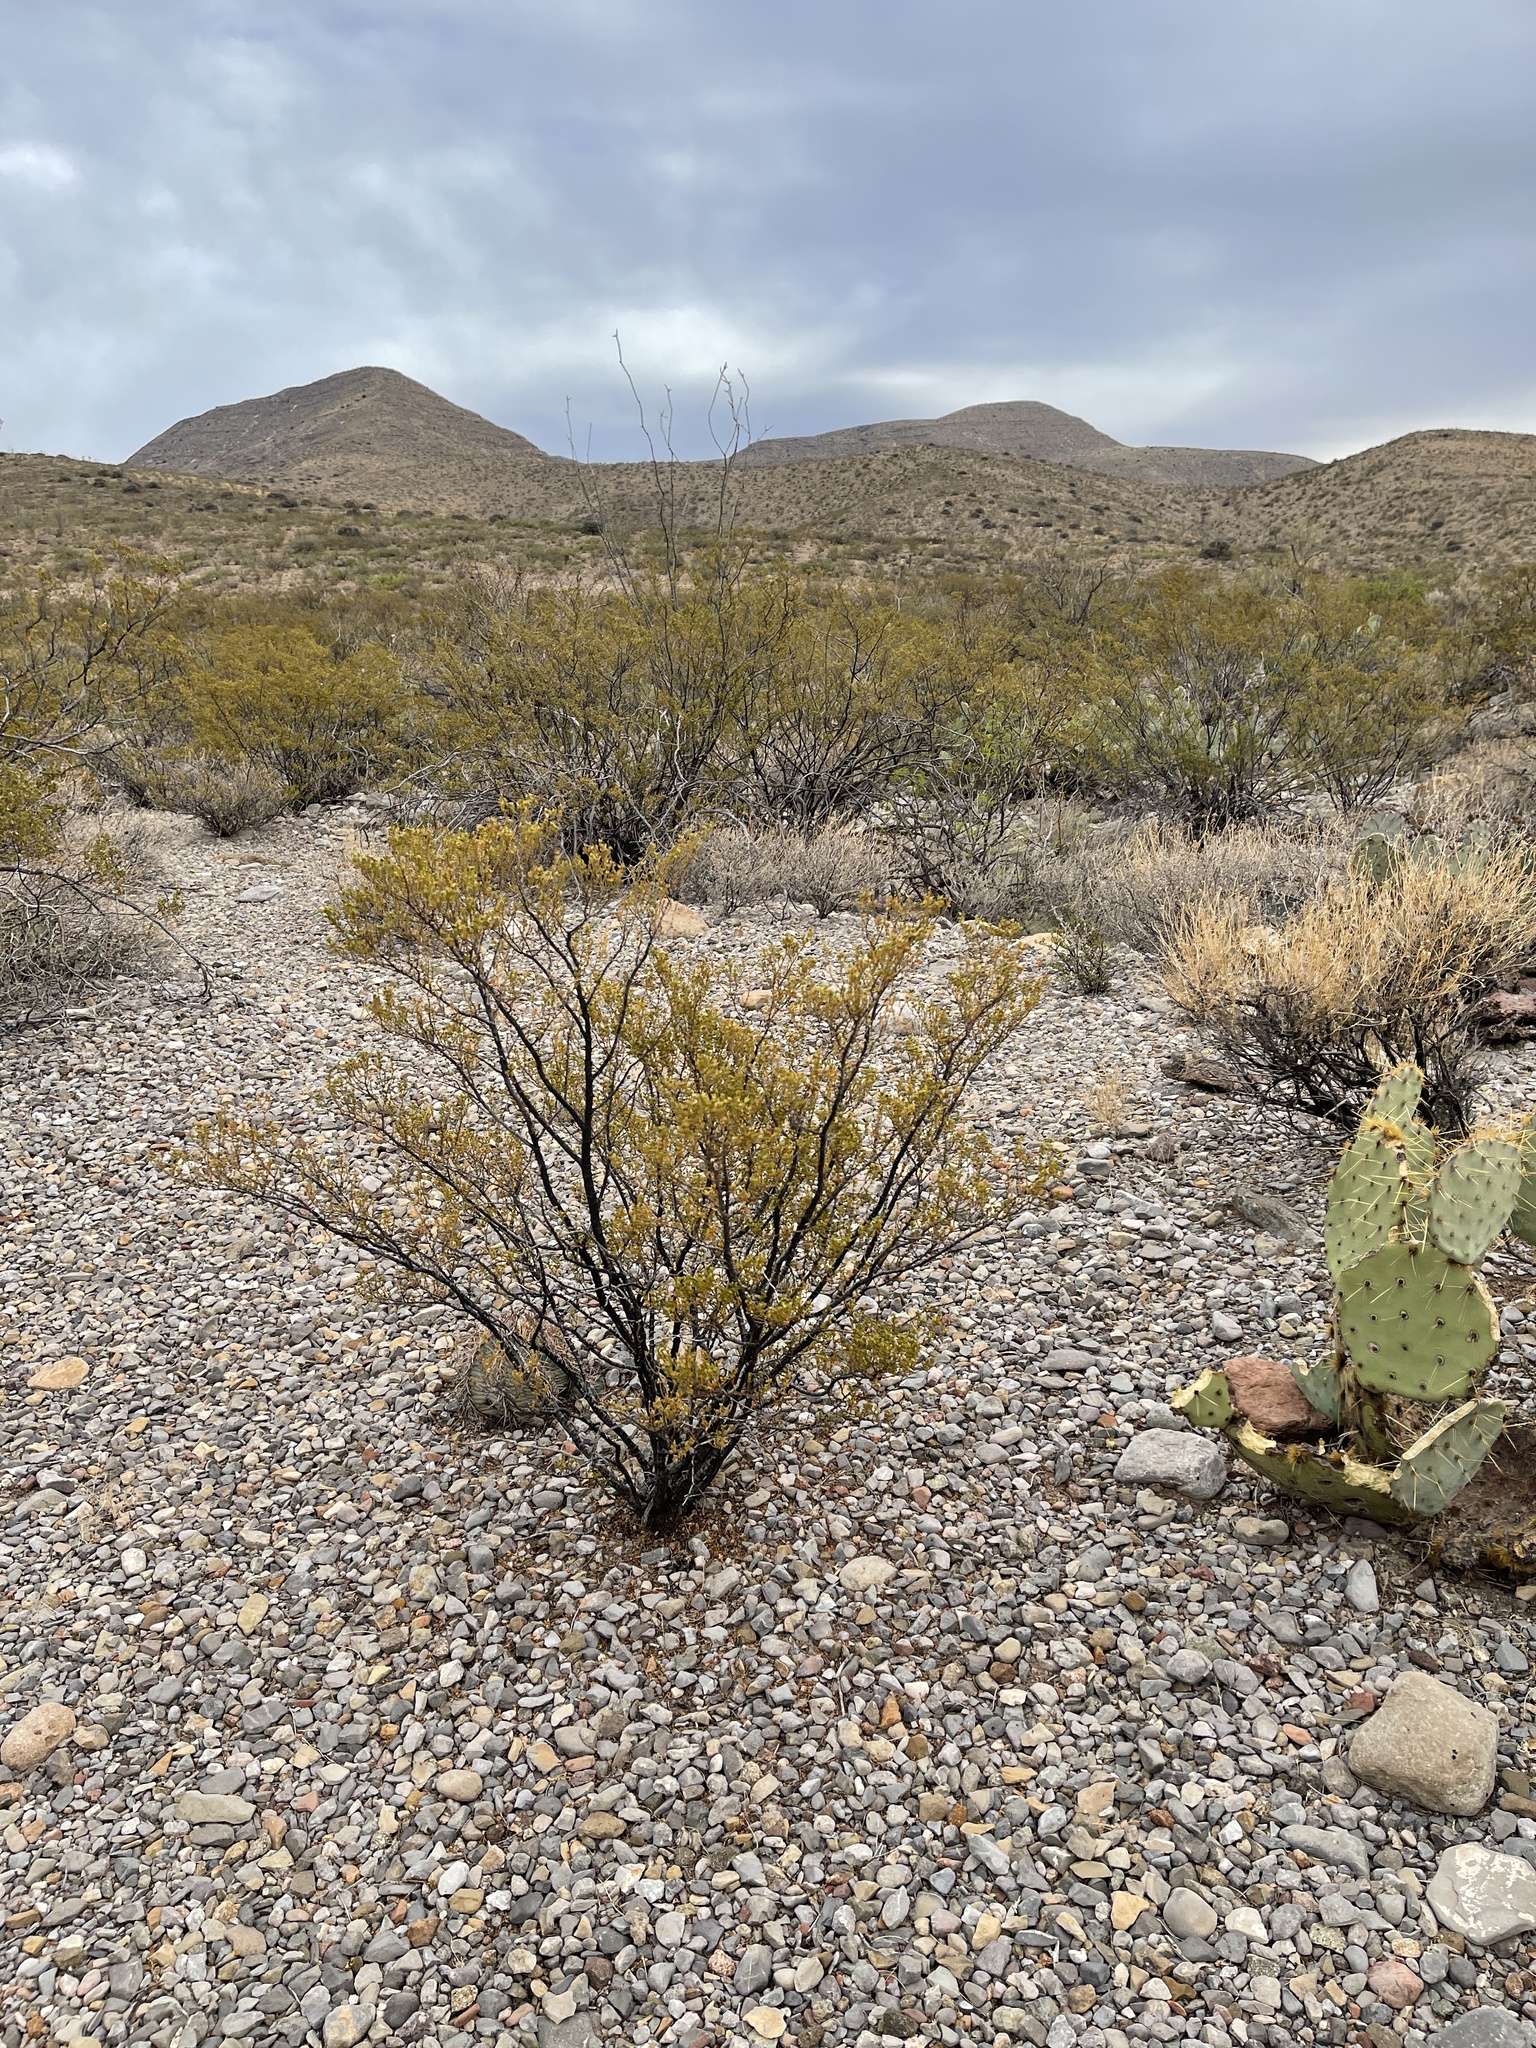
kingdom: Plantae
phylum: Tracheophyta
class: Magnoliopsida
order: Zygophyllales
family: Zygophyllaceae
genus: Larrea
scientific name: Larrea tridentata
